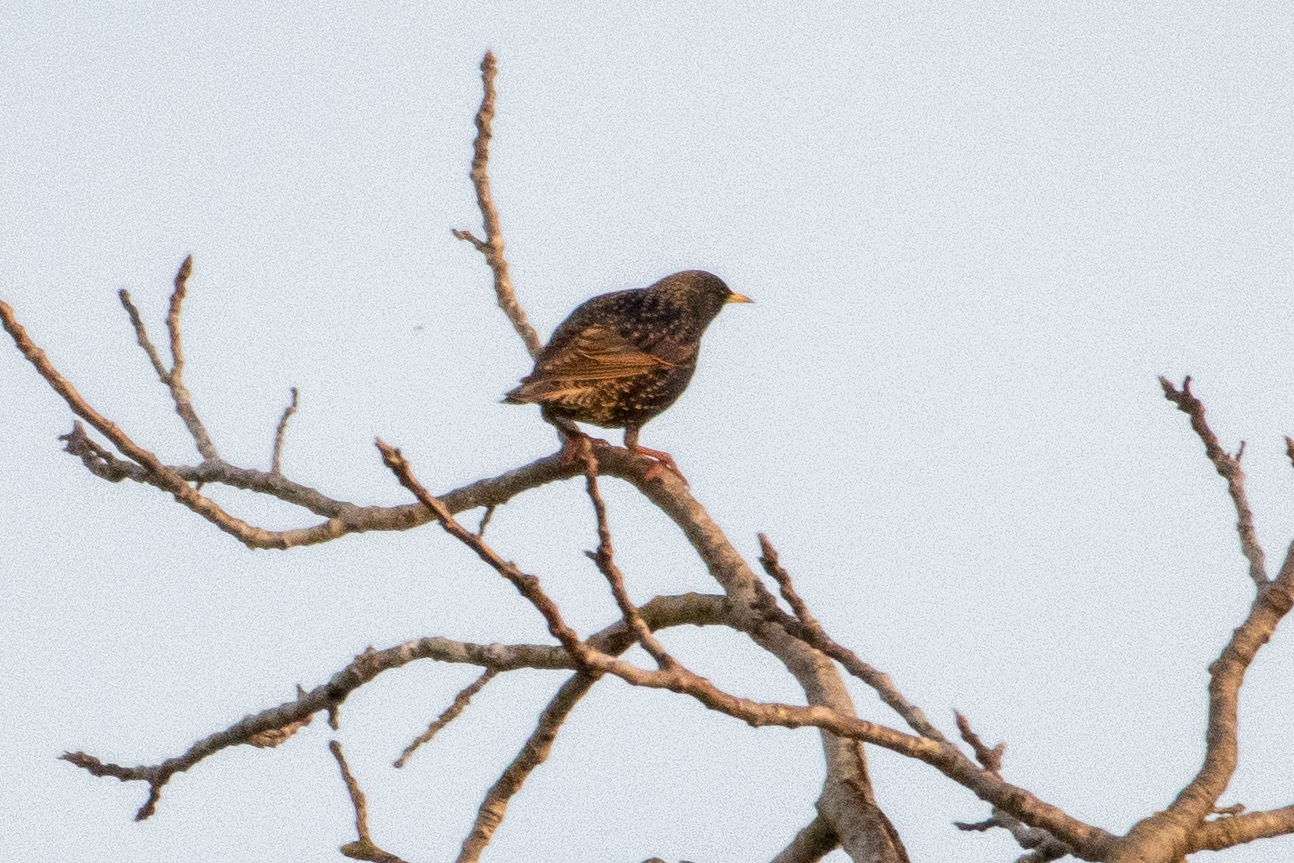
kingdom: Animalia
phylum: Chordata
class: Aves
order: Passeriformes
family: Sturnidae
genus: Sturnus
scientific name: Sturnus vulgaris
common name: Common starling
